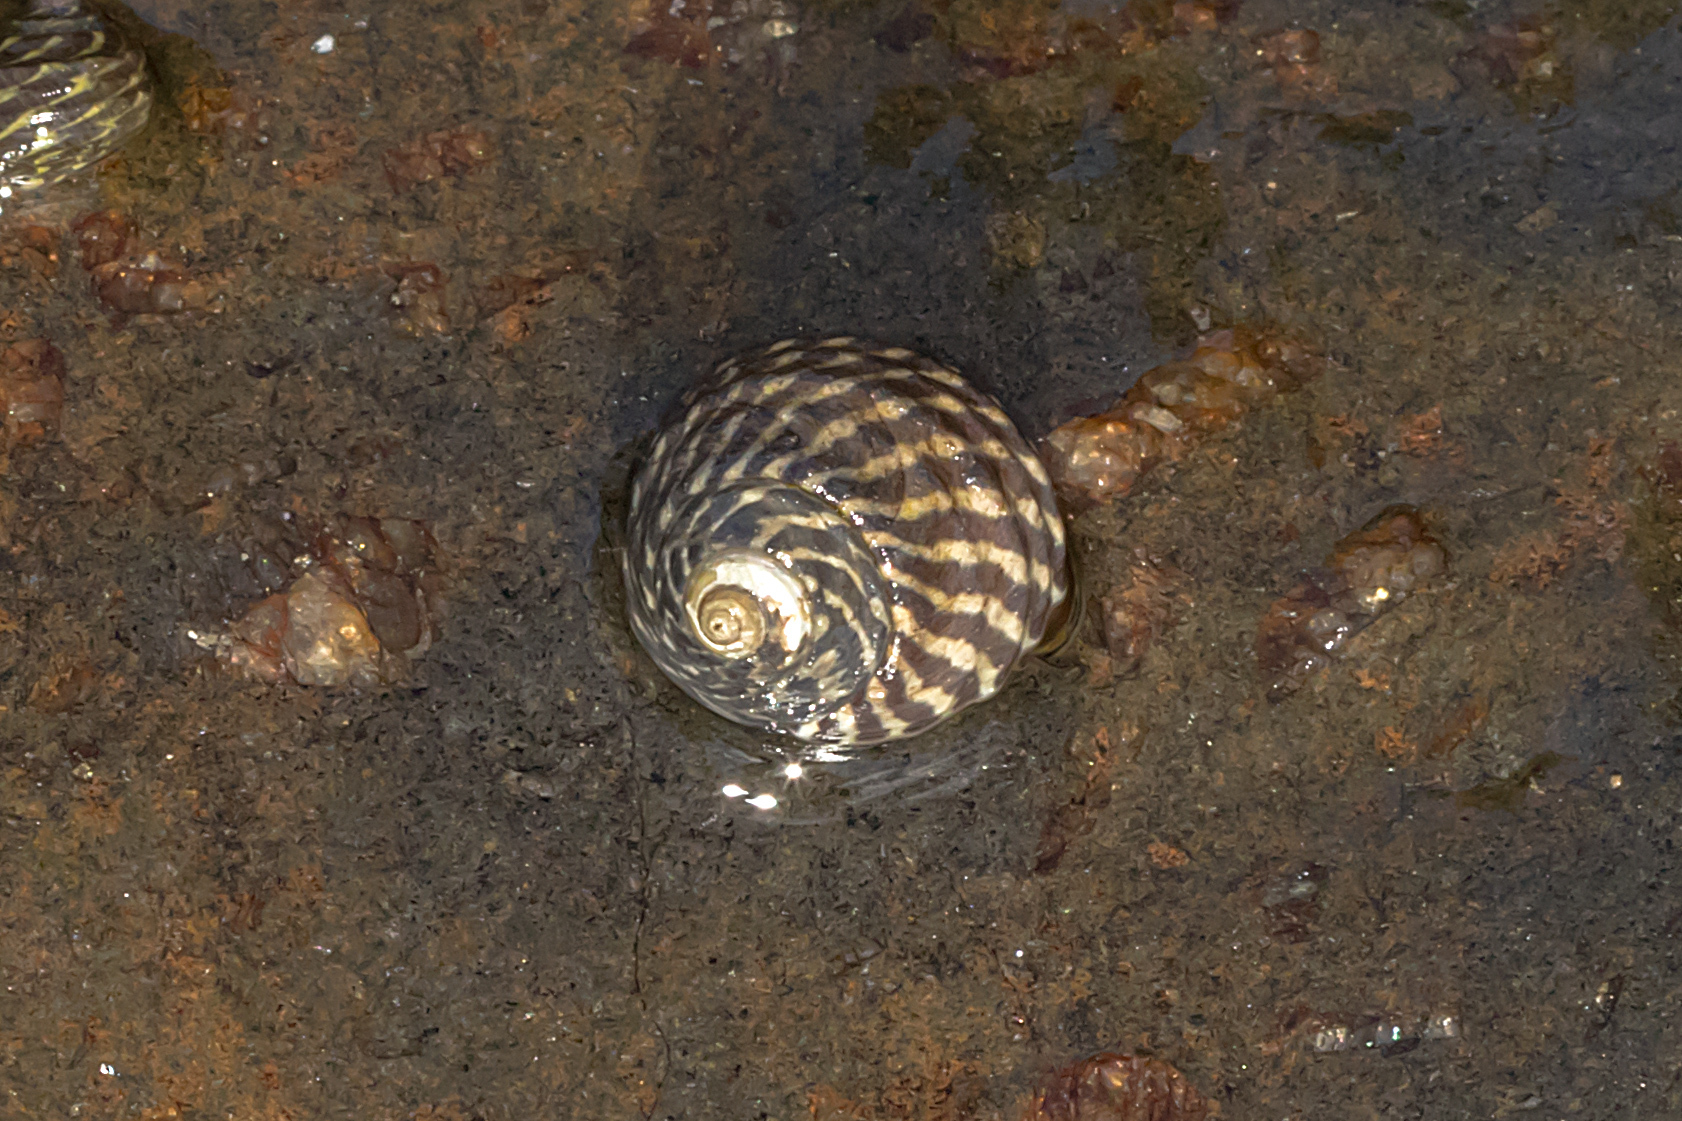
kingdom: Animalia
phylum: Mollusca
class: Gastropoda
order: Trochida
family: Trochidae
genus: Austrocochlea
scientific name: Austrocochlea porcata
